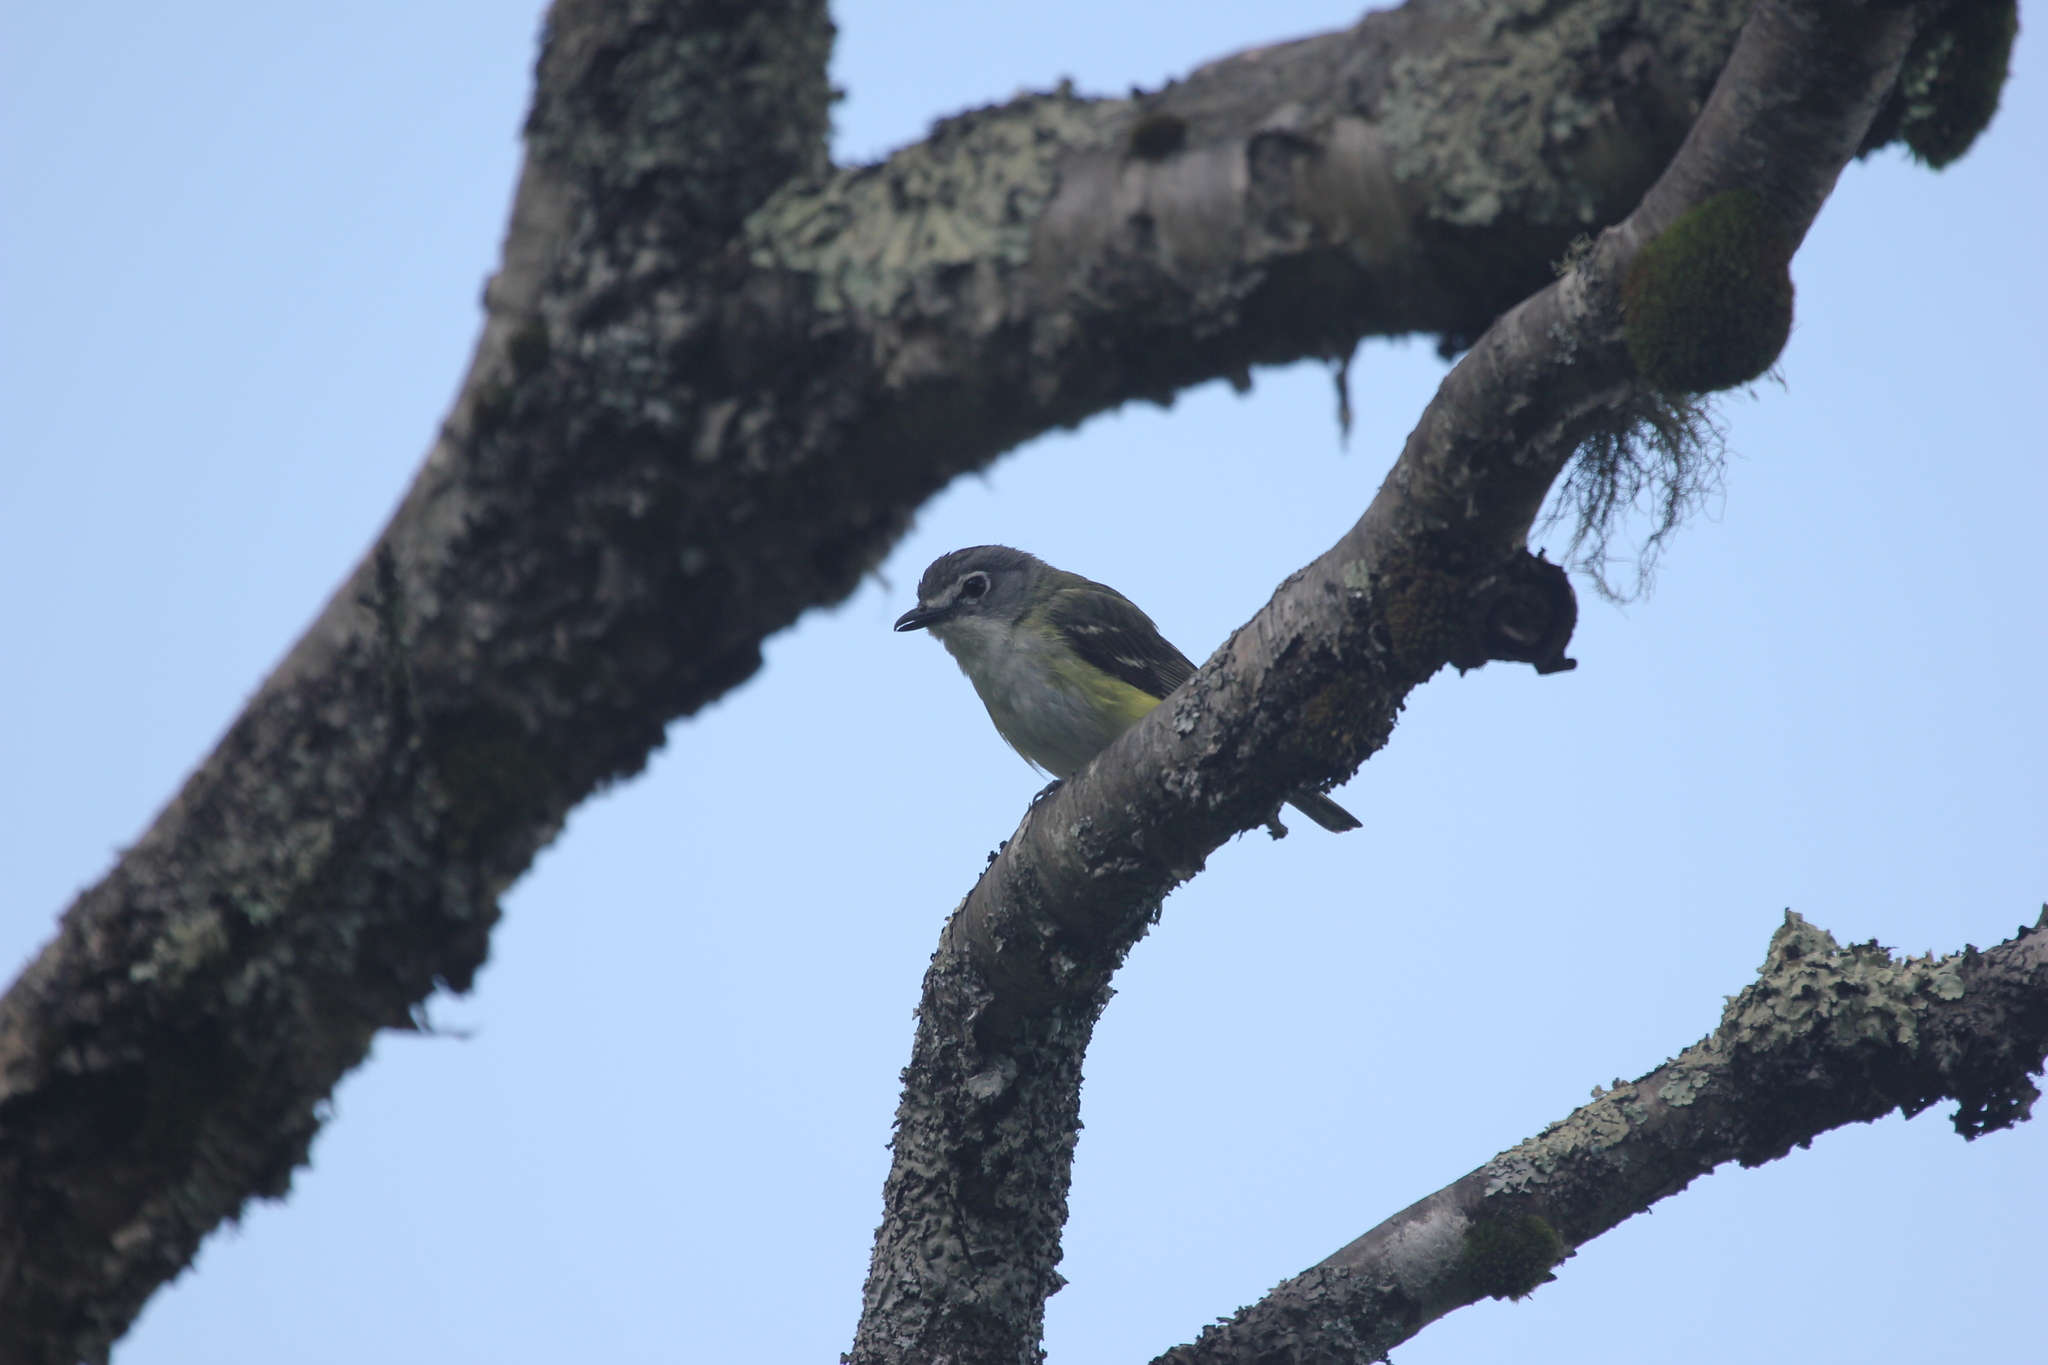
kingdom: Animalia
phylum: Chordata
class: Aves
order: Passeriformes
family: Vireonidae
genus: Vireo
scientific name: Vireo solitarius
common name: Blue-headed vireo
